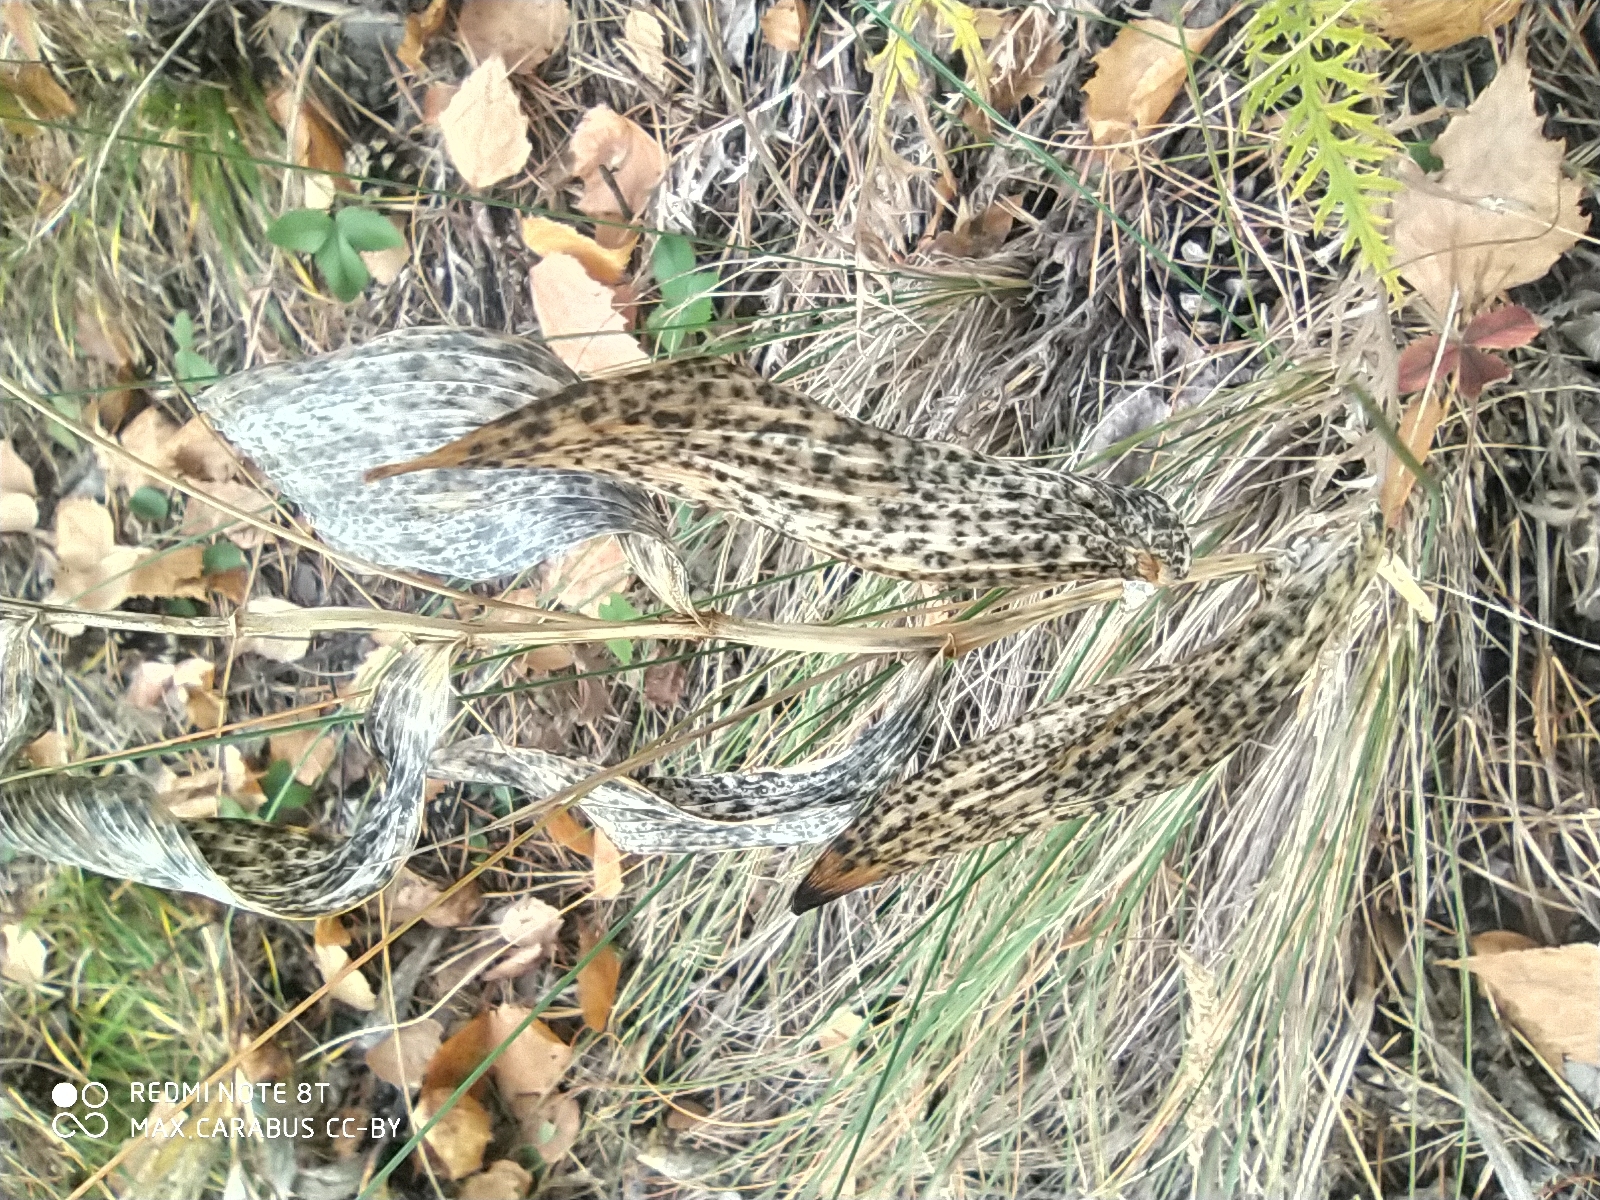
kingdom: Plantae
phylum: Tracheophyta
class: Liliopsida
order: Asparagales
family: Asparagaceae
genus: Polygonatum
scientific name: Polygonatum odoratum
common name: Angular solomon's-seal
